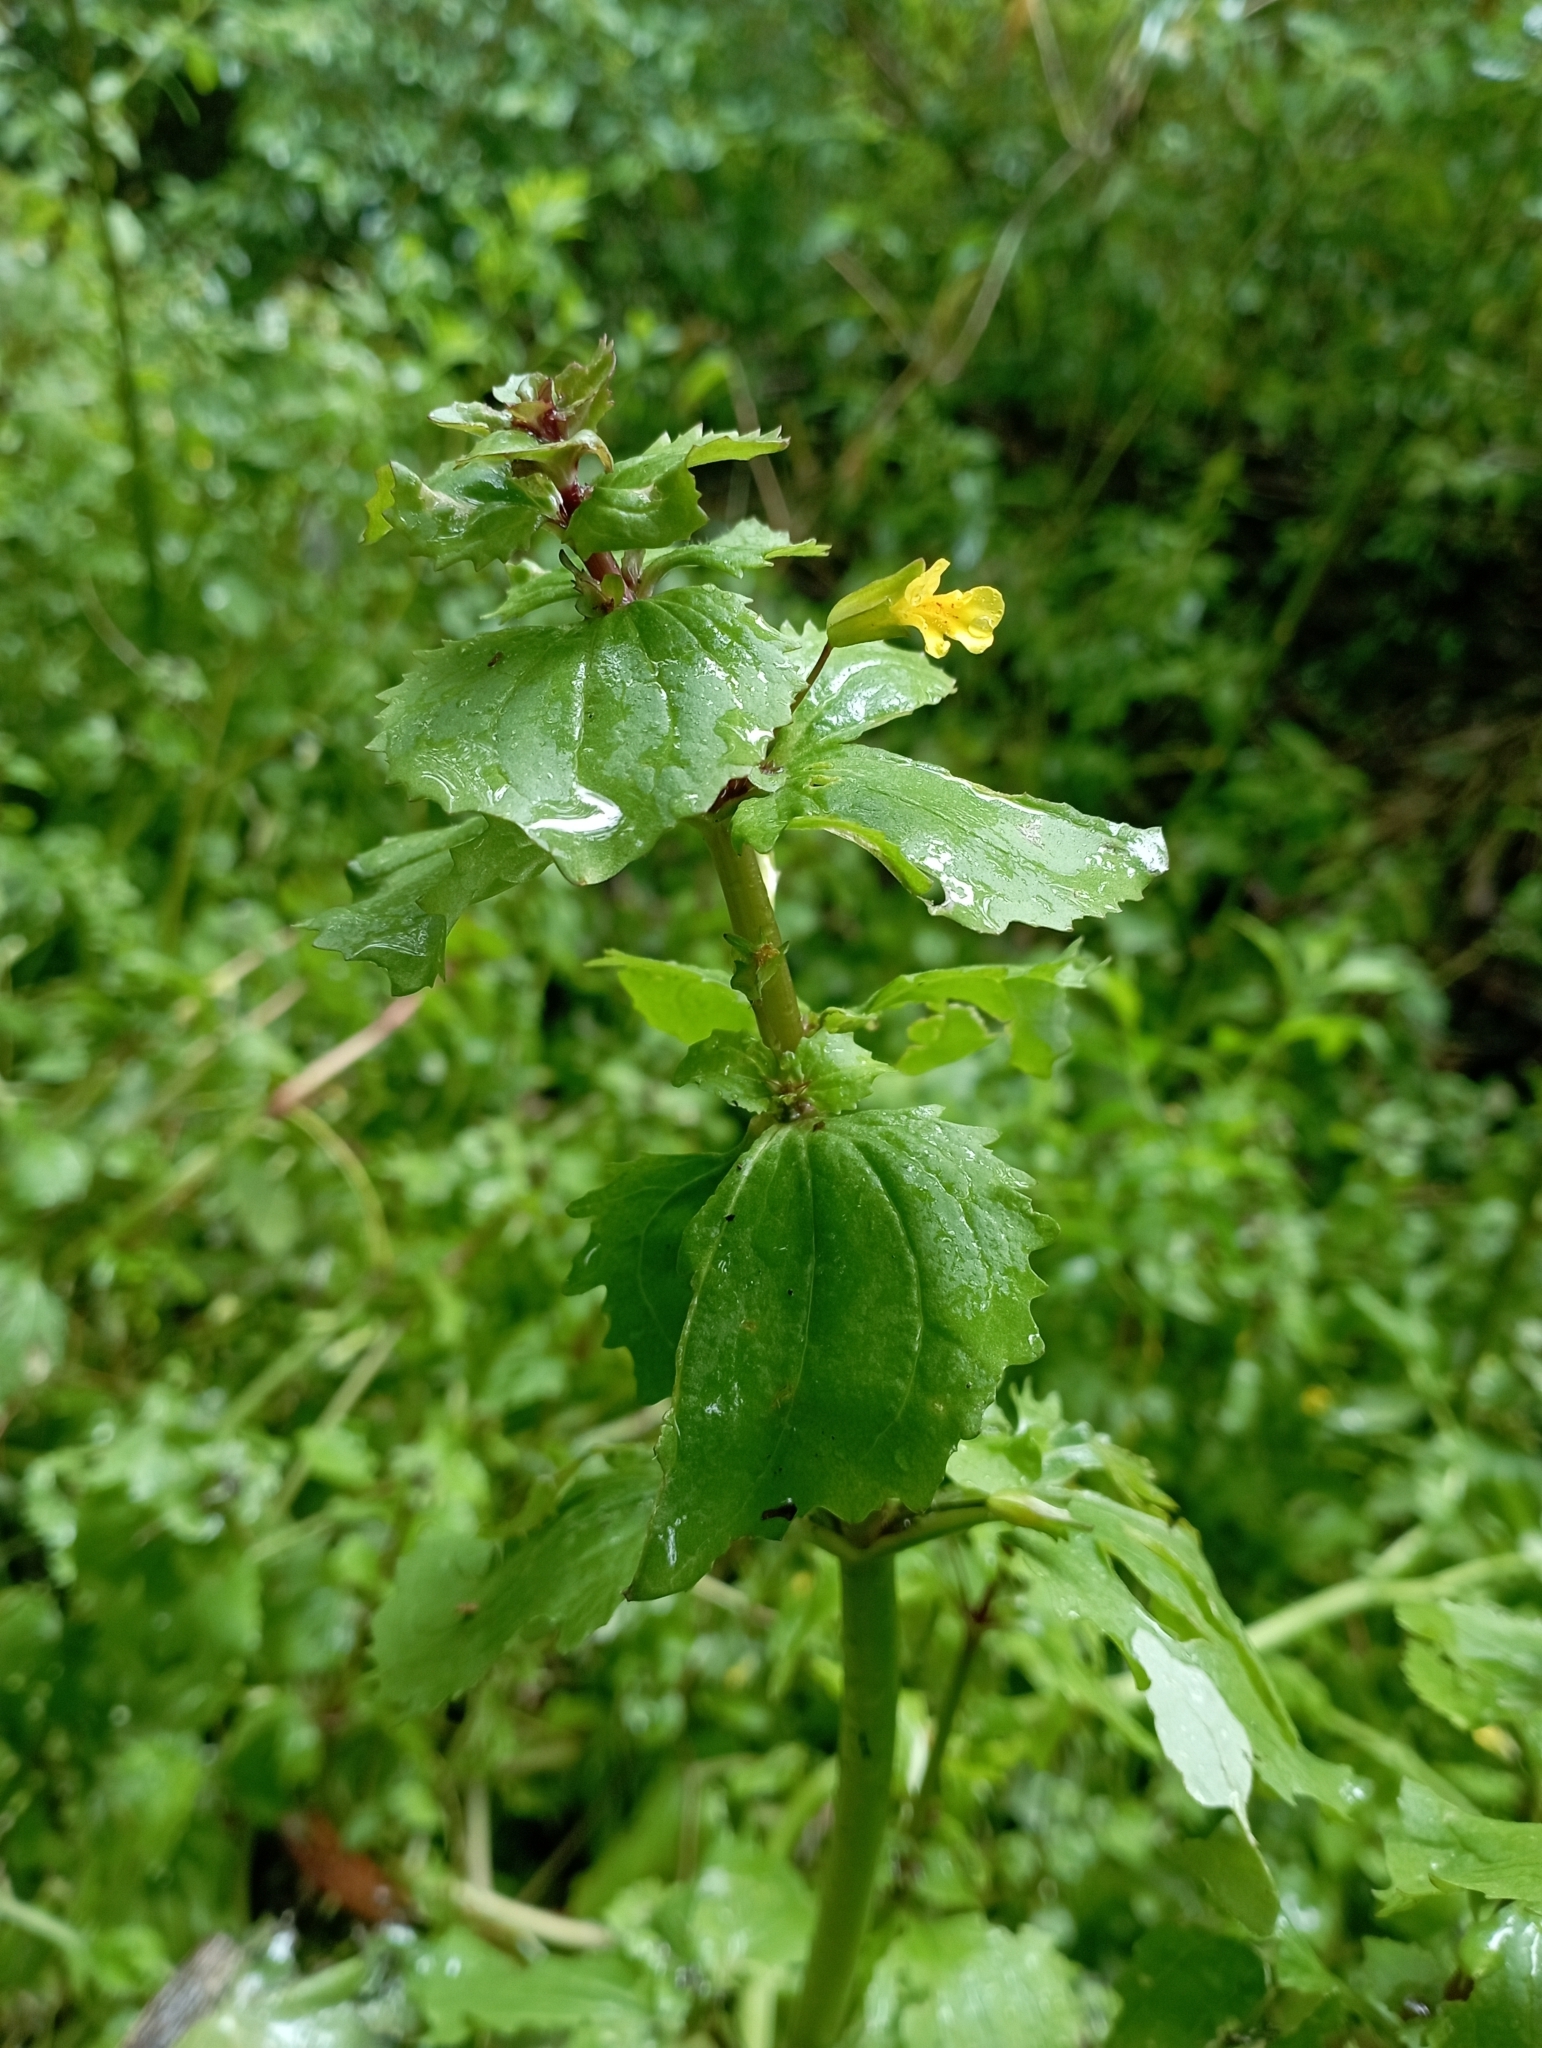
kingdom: Plantae
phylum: Tracheophyta
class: Magnoliopsida
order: Lamiales
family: Phrymaceae
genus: Erythranthe
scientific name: Erythranthe andicola
